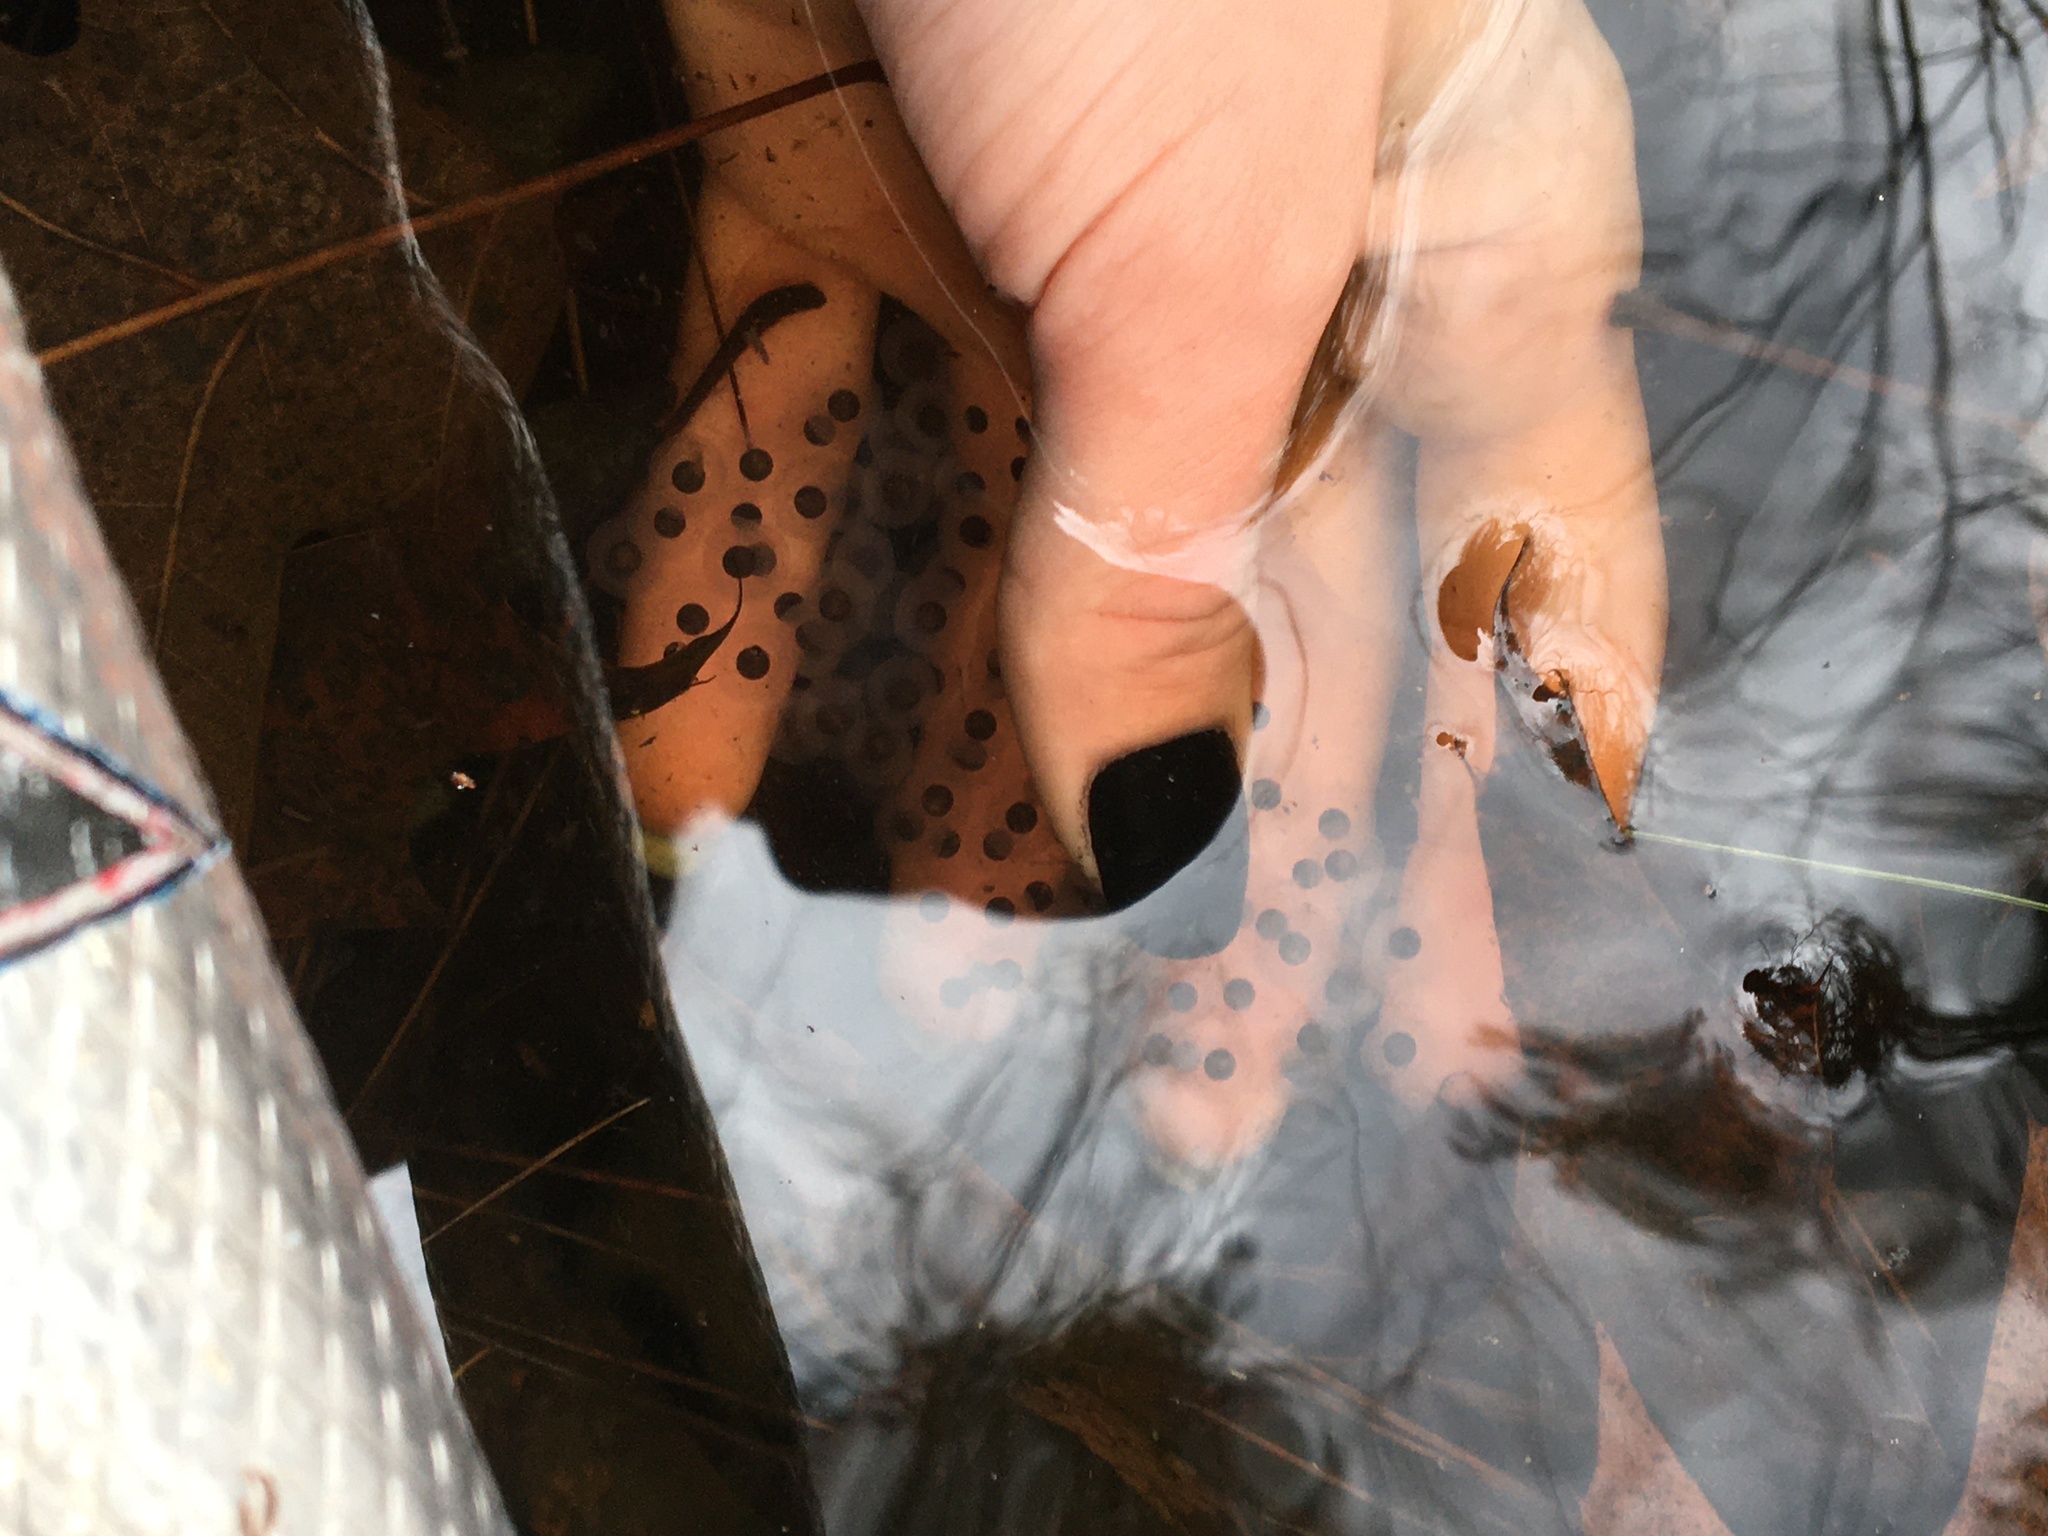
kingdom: Animalia
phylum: Chordata
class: Amphibia
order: Caudata
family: Ambystomatidae
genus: Ambystoma
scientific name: Ambystoma maculatum
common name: Spotted salamander
